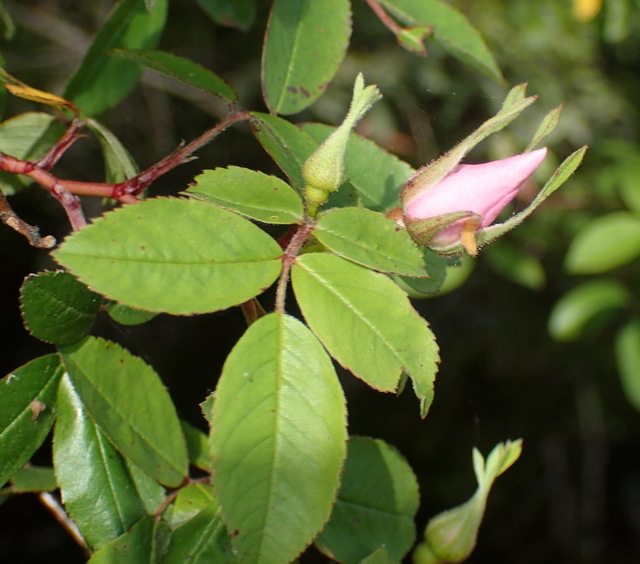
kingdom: Plantae
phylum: Tracheophyta
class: Magnoliopsida
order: Rosales
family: Rosaceae
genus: Rosa
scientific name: Rosa palustris
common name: Swamp rose
